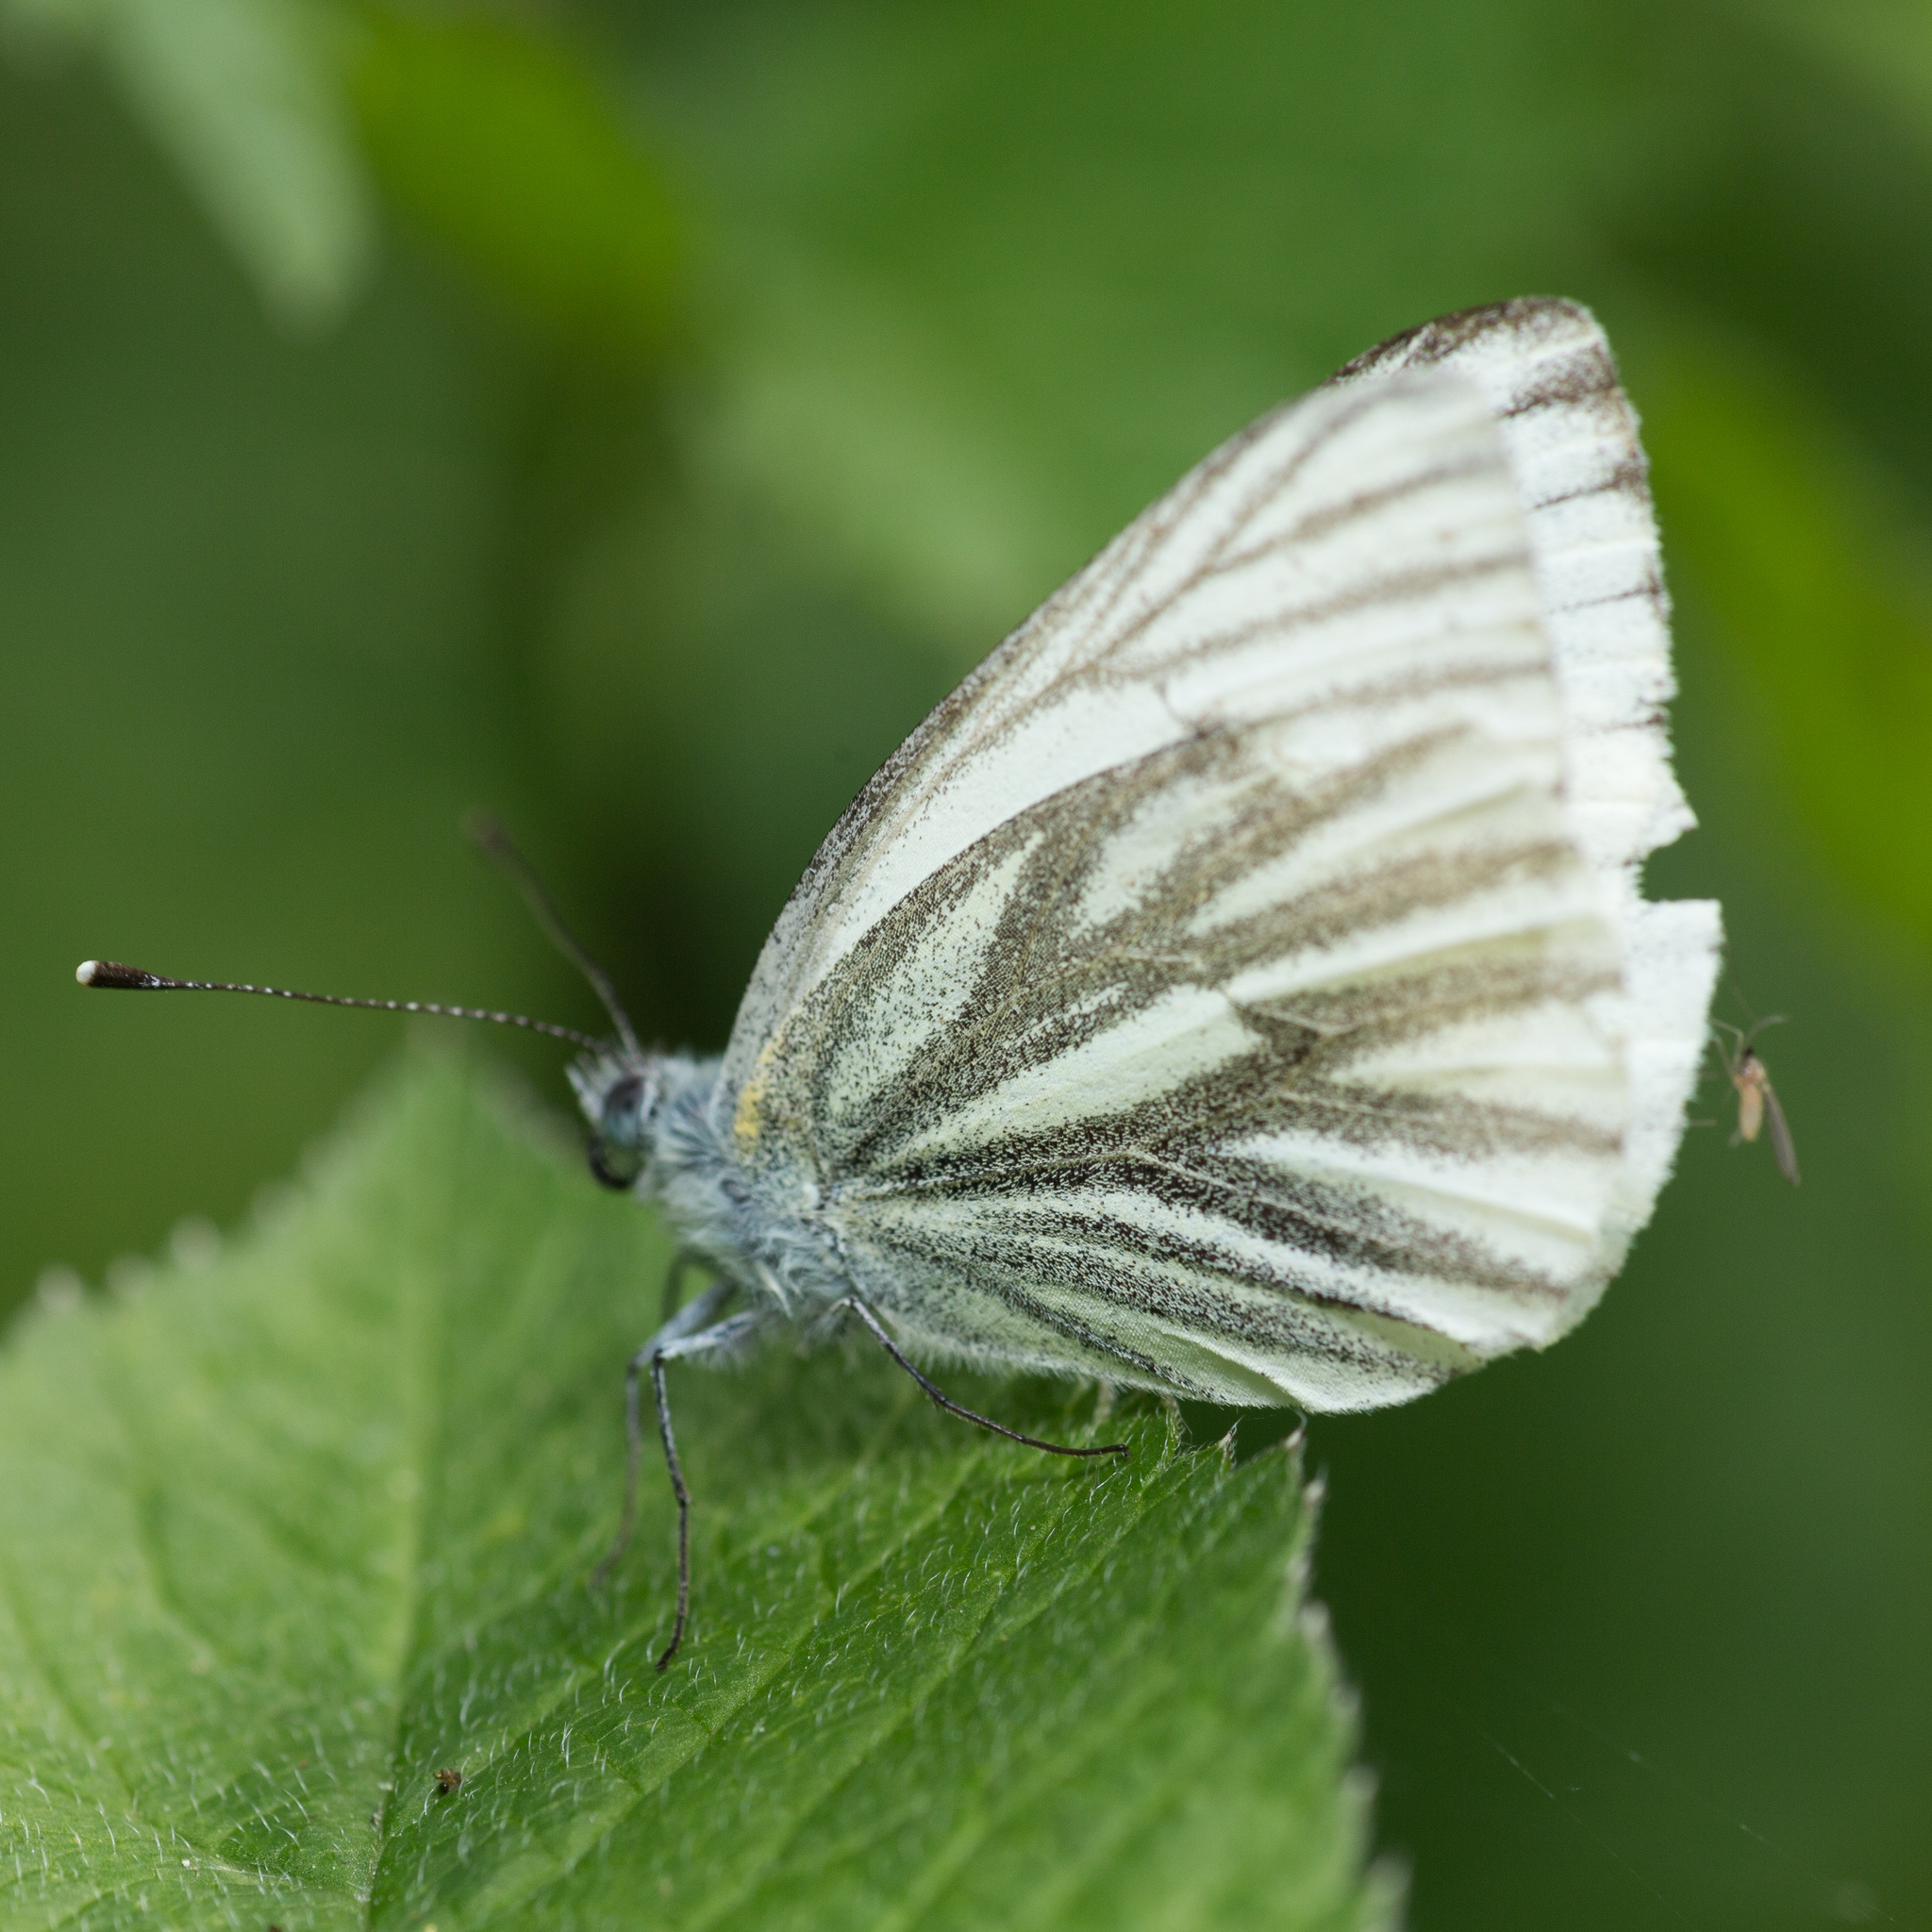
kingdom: Animalia
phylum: Arthropoda
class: Insecta
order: Lepidoptera
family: Pieridae
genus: Pieris
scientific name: Pieris napi
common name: Green-veined white
